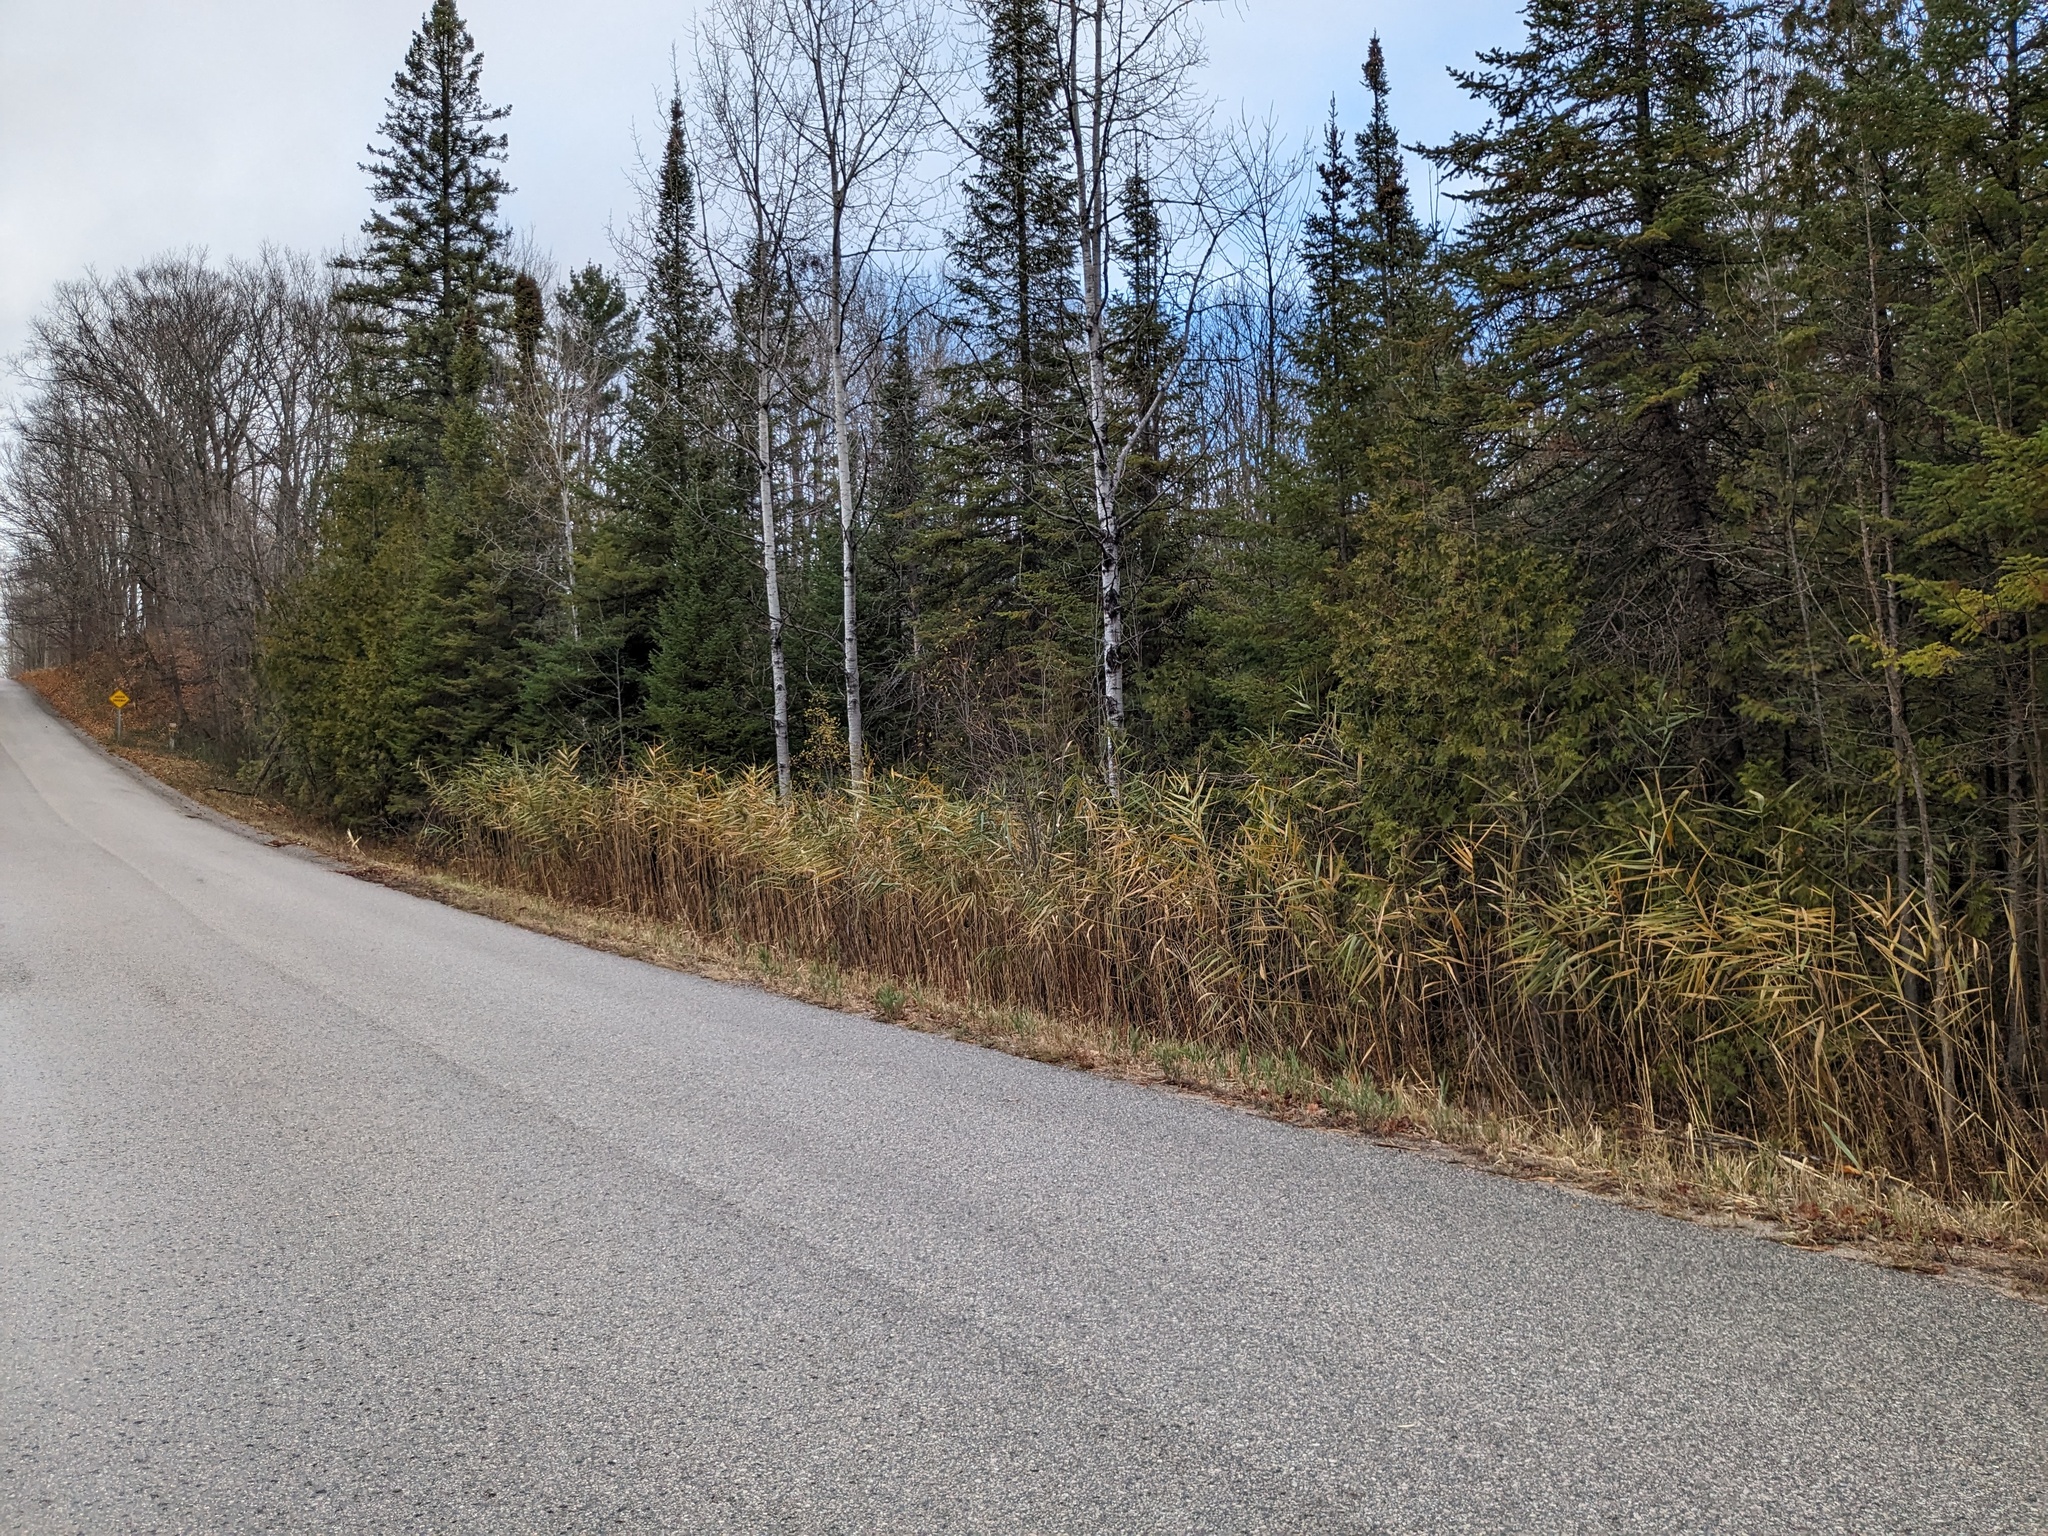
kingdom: Plantae
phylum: Tracheophyta
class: Liliopsida
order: Poales
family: Poaceae
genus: Phragmites
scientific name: Phragmites australis
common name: Common reed
